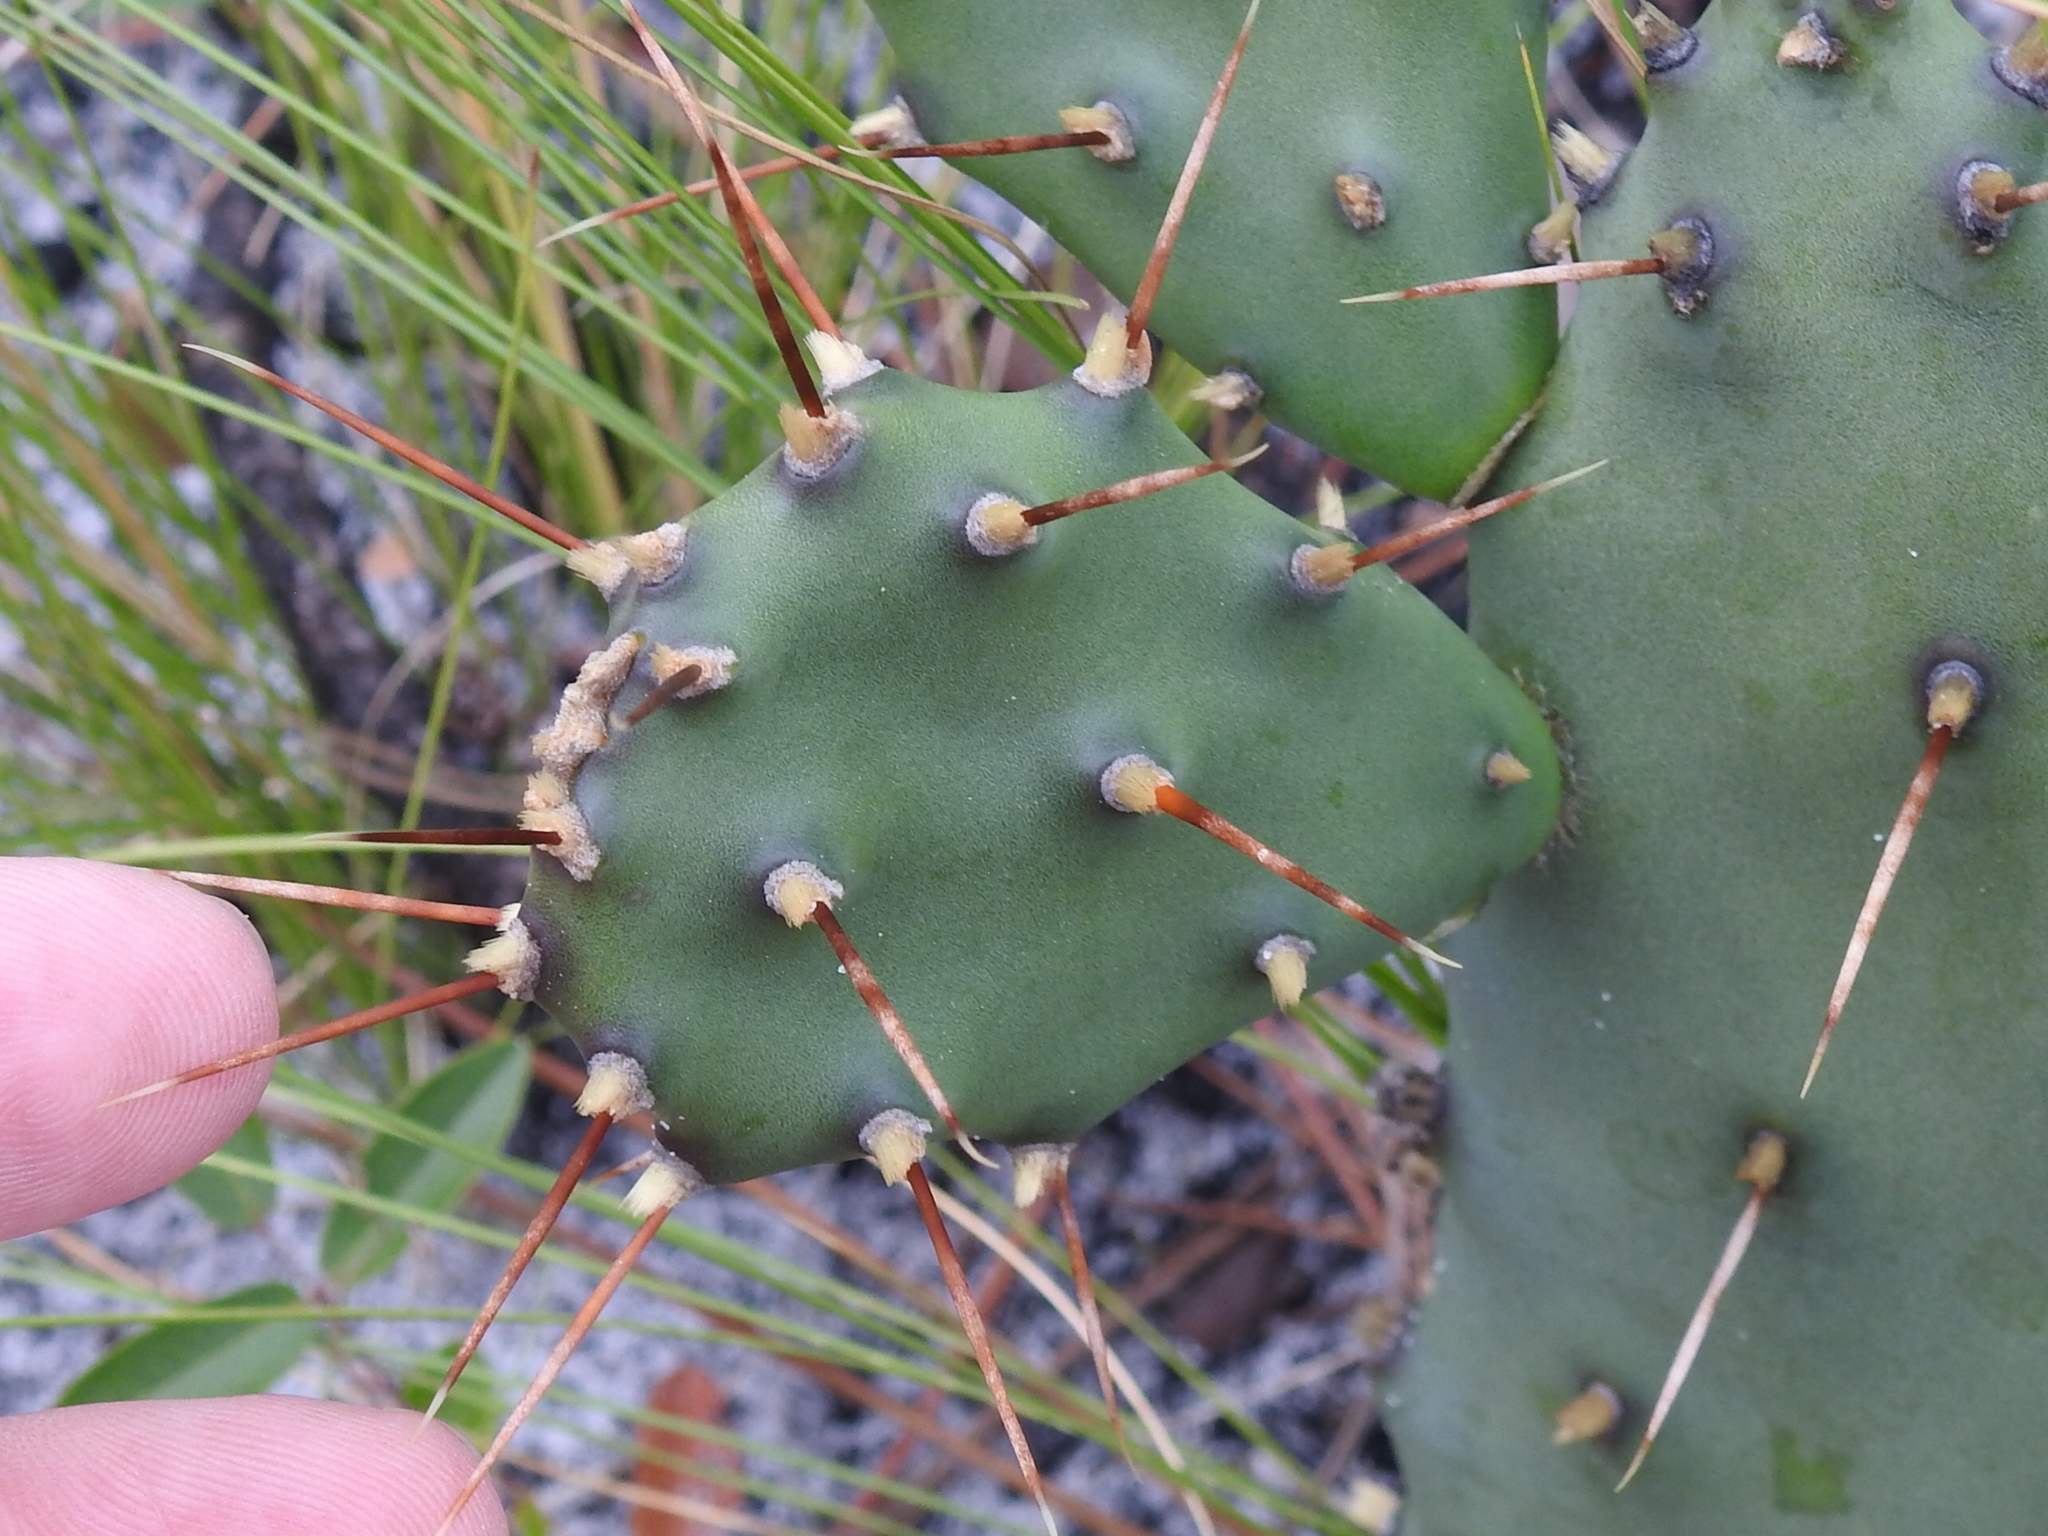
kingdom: Plantae
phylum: Tracheophyta
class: Magnoliopsida
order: Caryophyllales
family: Cactaceae
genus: Opuntia
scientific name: Opuntia austrina
